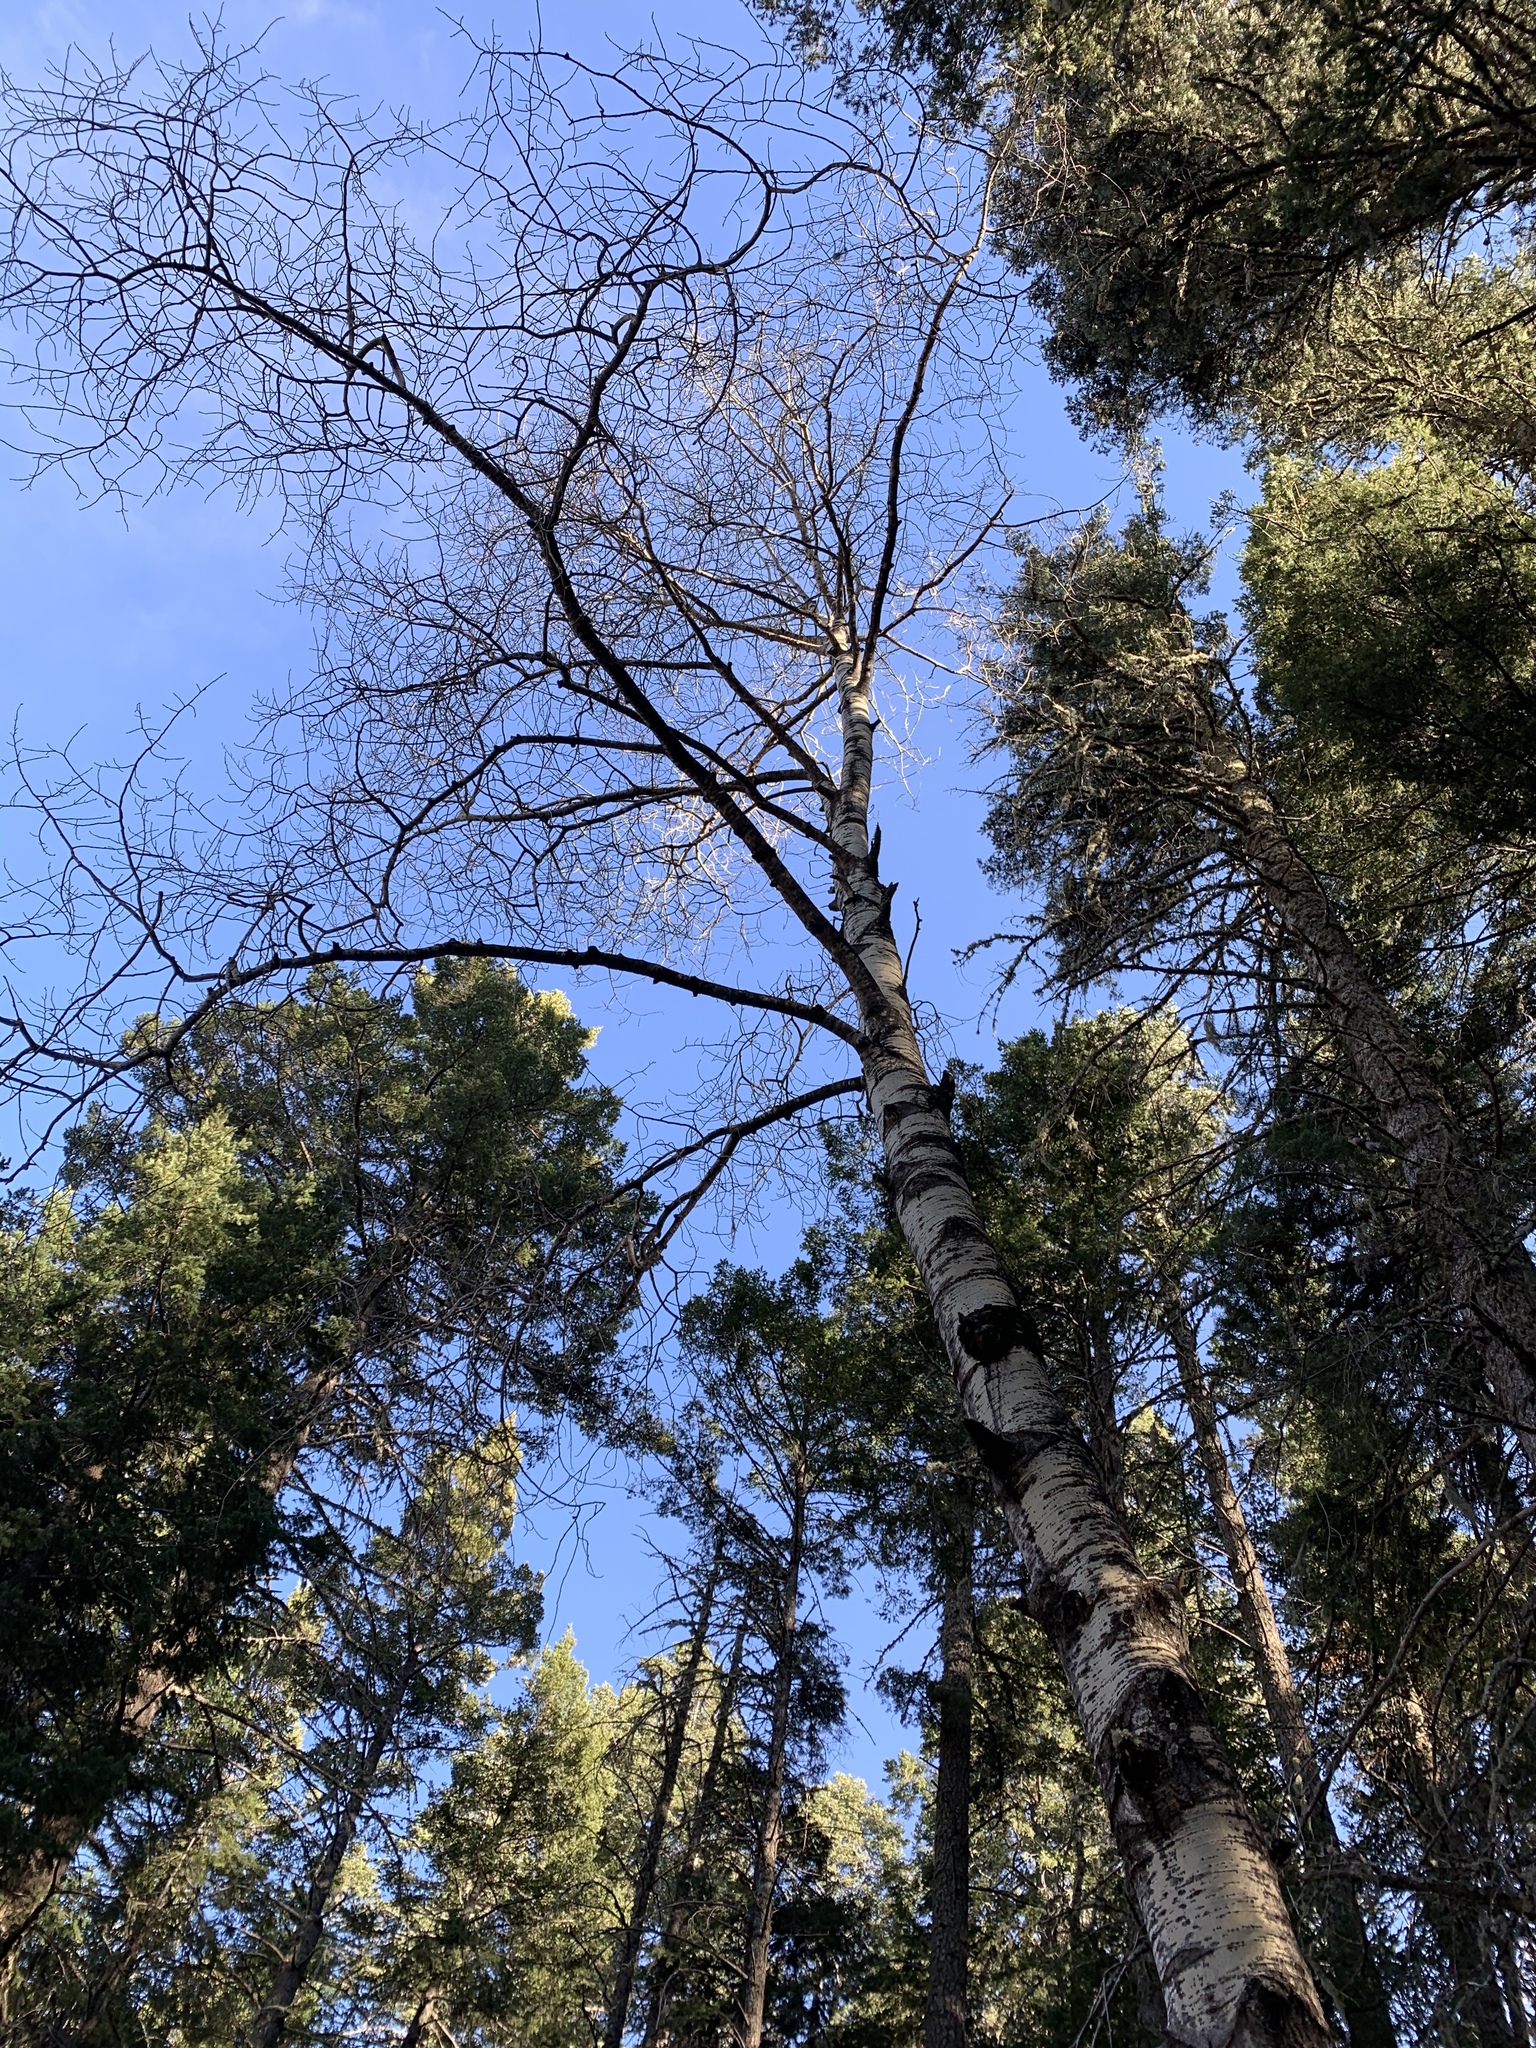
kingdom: Plantae
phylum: Tracheophyta
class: Magnoliopsida
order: Malpighiales
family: Salicaceae
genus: Populus
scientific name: Populus tremuloides
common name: Quaking aspen
